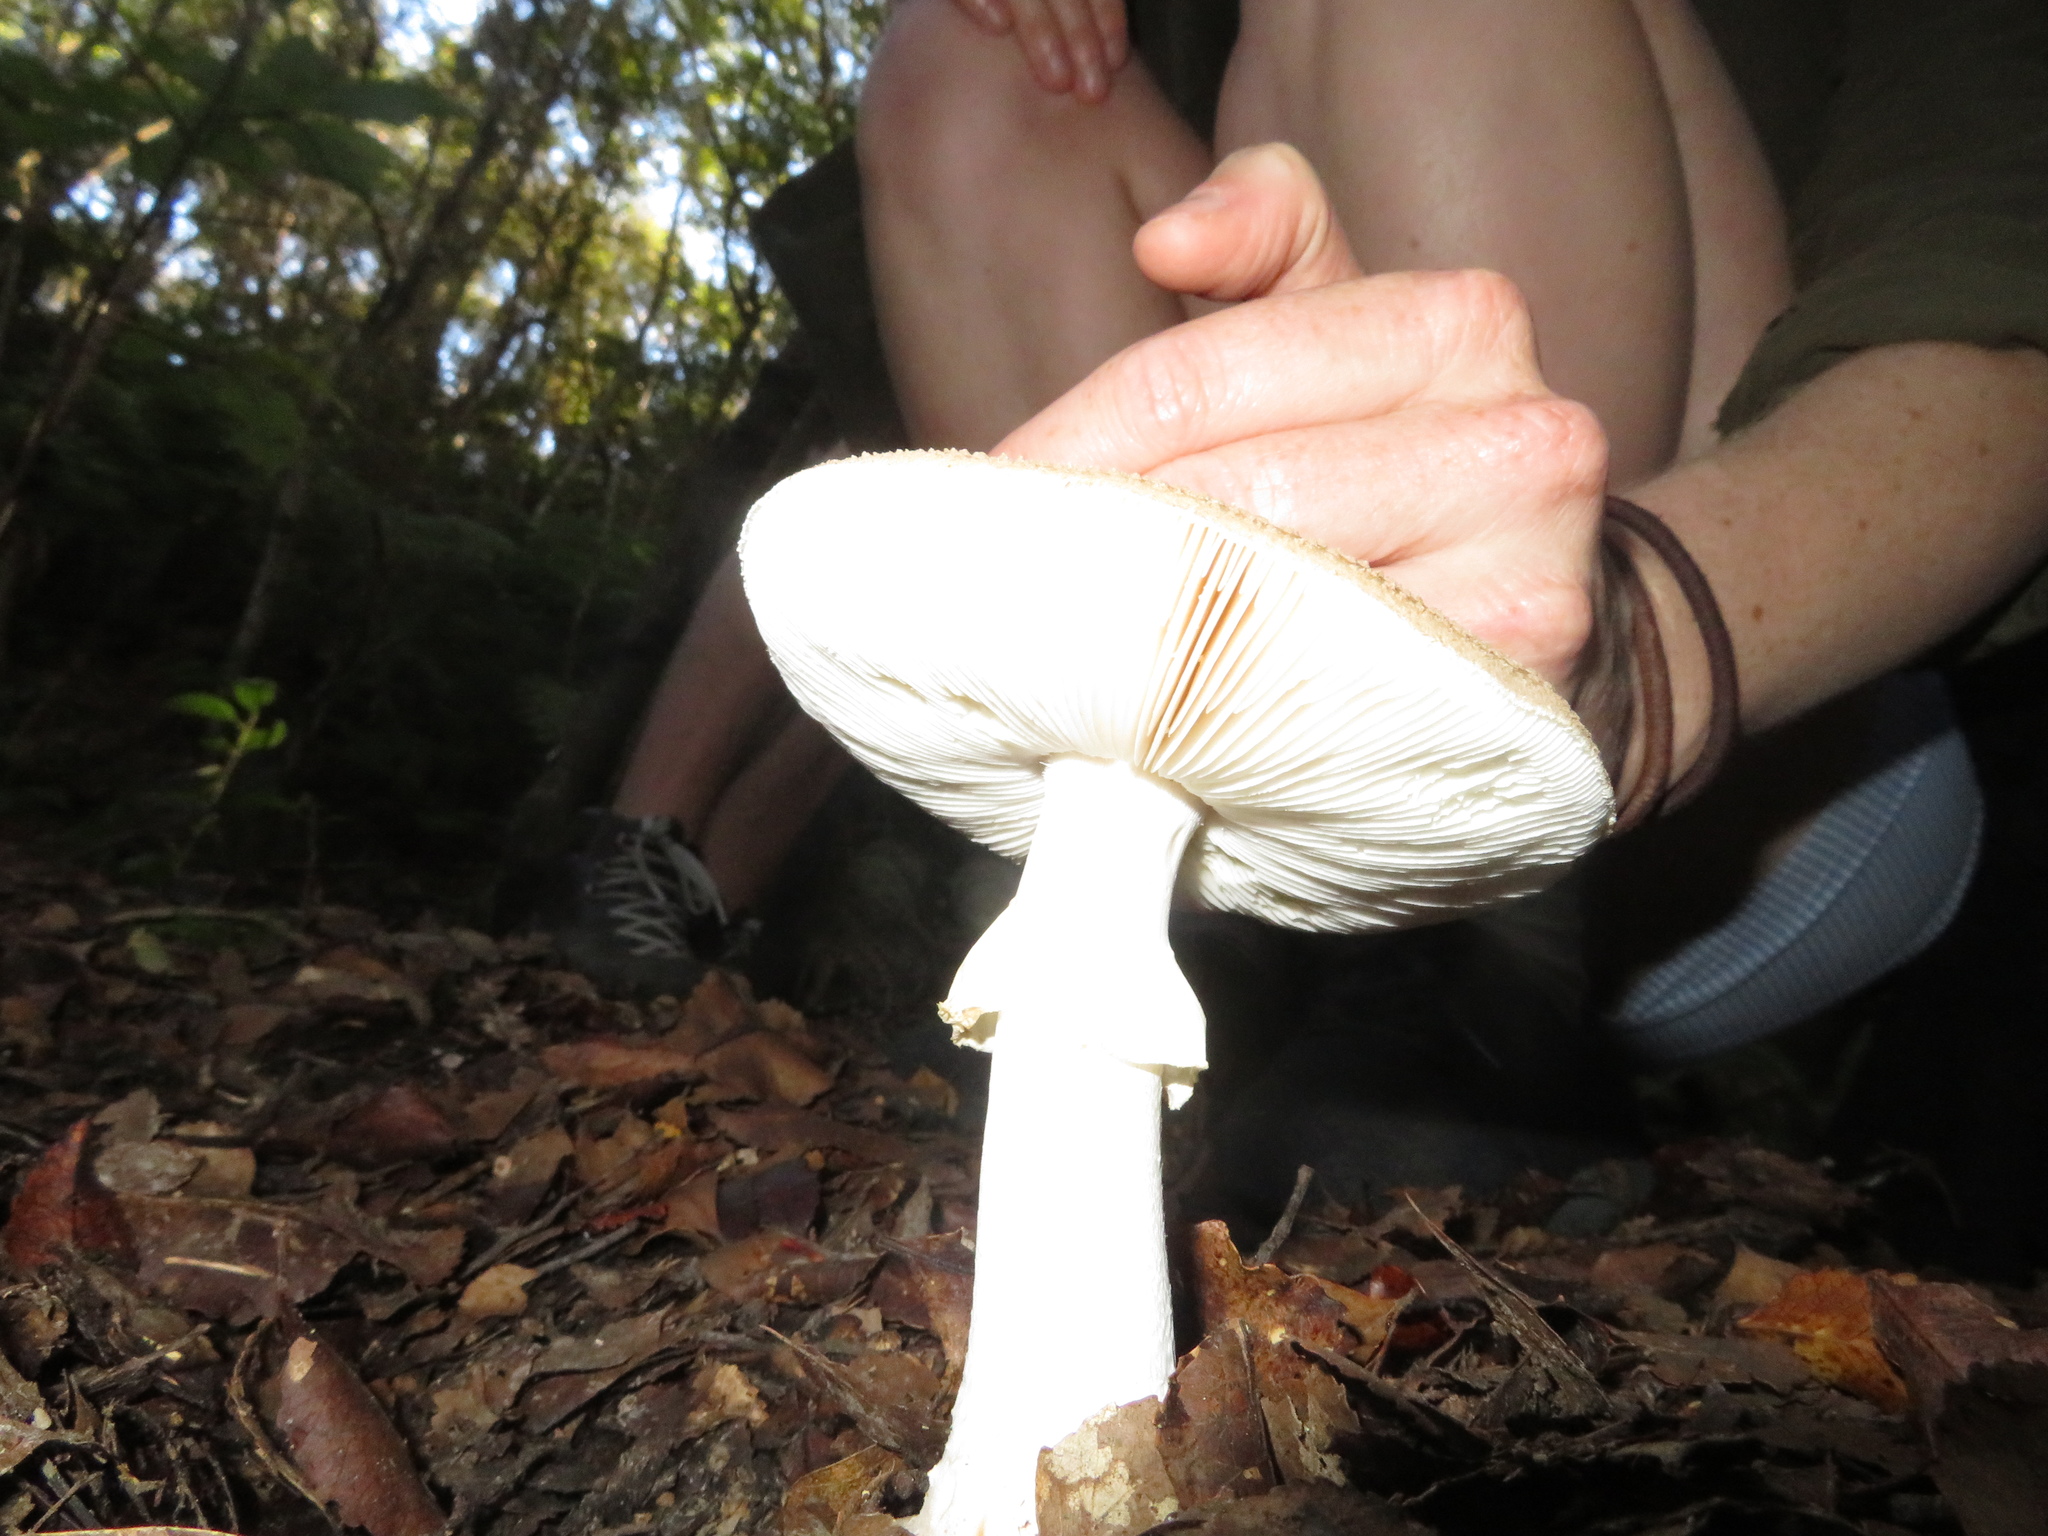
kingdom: Fungi
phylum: Basidiomycota
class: Agaricomycetes
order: Agaricales
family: Amanitaceae
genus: Amanita
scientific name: Amanita australis
